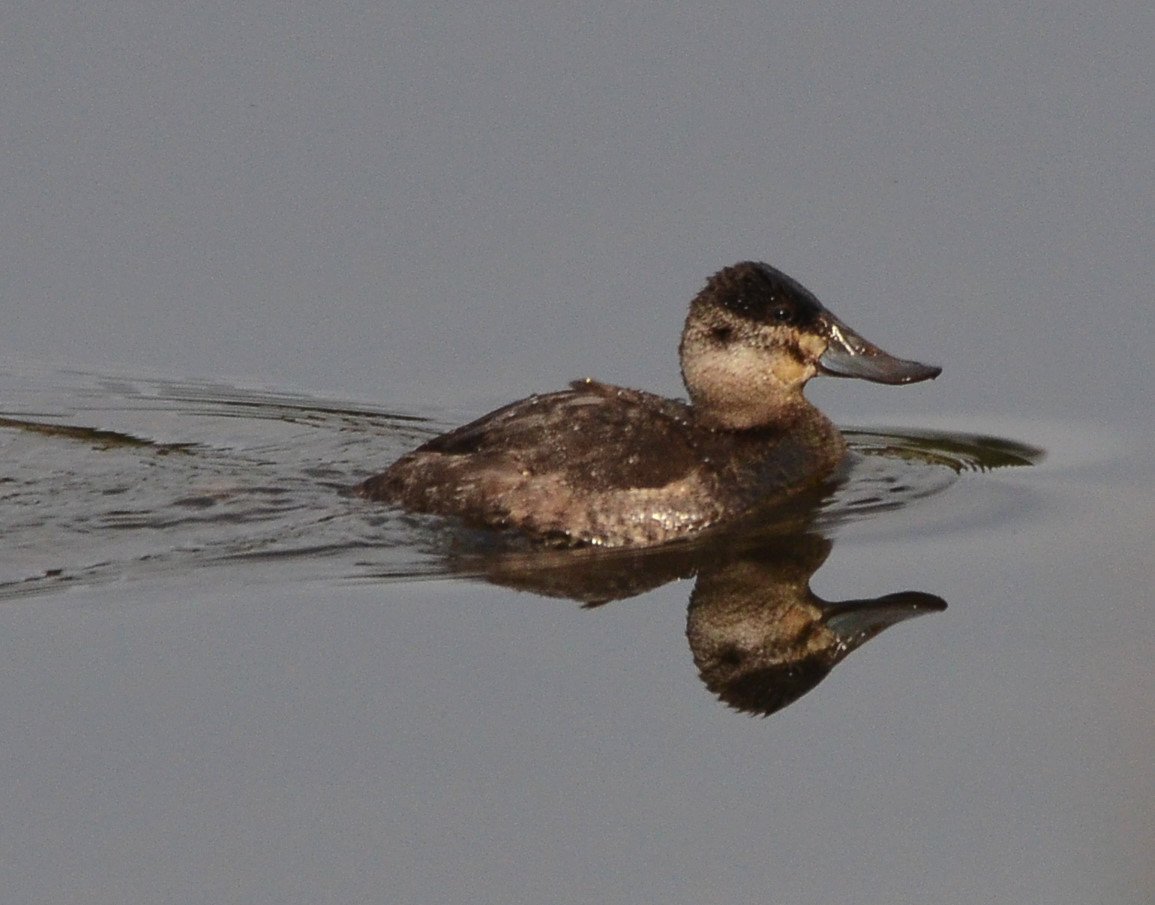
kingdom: Animalia
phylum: Chordata
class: Aves
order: Anseriformes
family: Anatidae
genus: Oxyura
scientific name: Oxyura jamaicensis
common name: Ruddy duck
